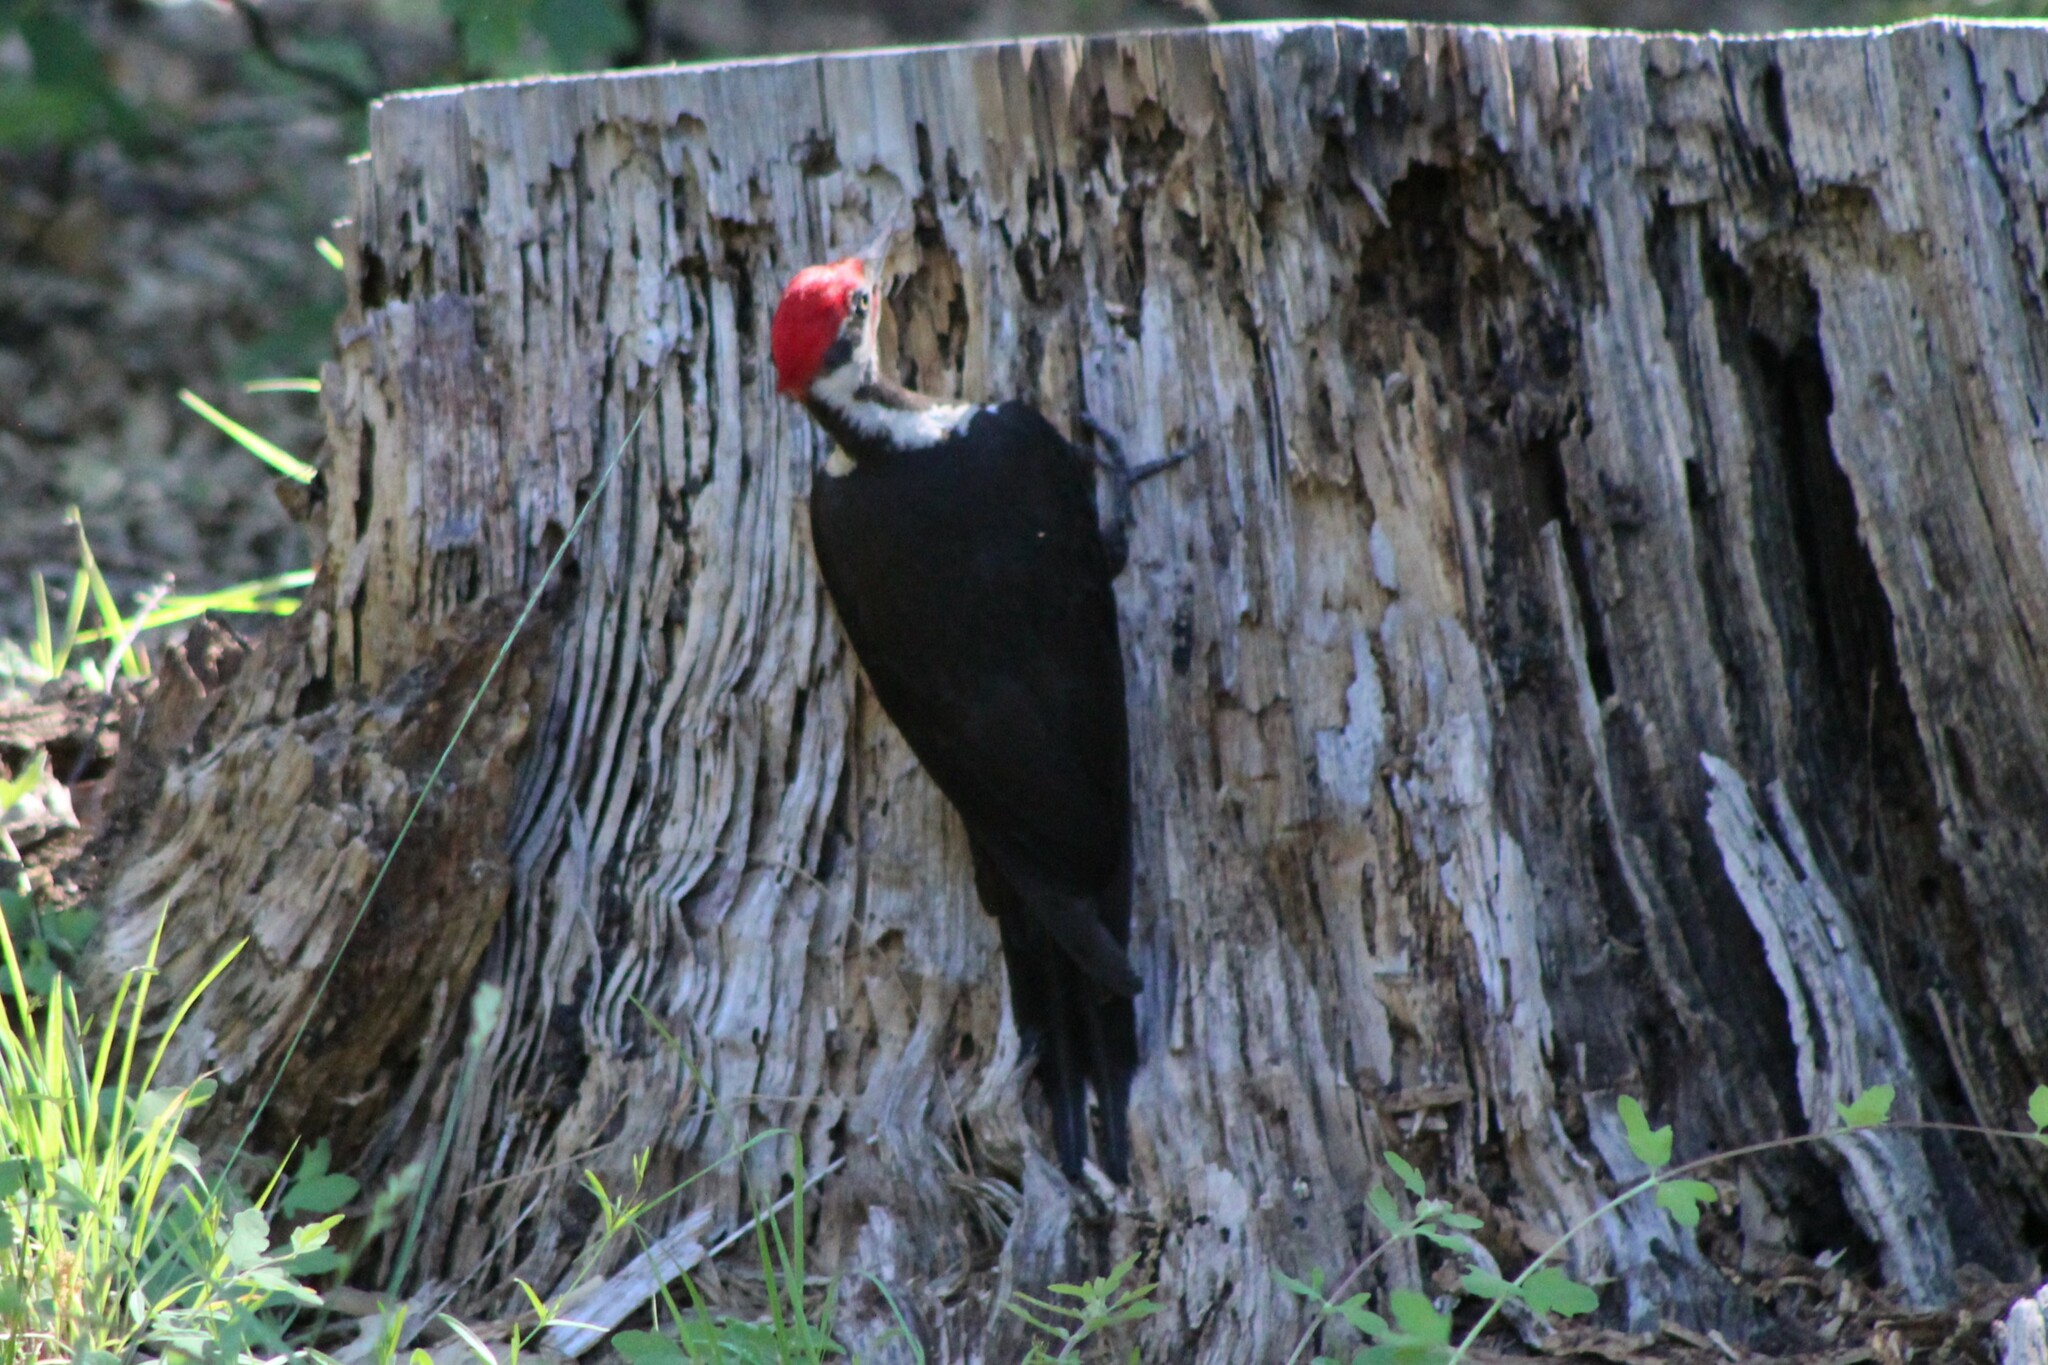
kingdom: Animalia
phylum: Chordata
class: Aves
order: Piciformes
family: Picidae
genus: Dryocopus
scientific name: Dryocopus pileatus
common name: Pileated woodpecker
